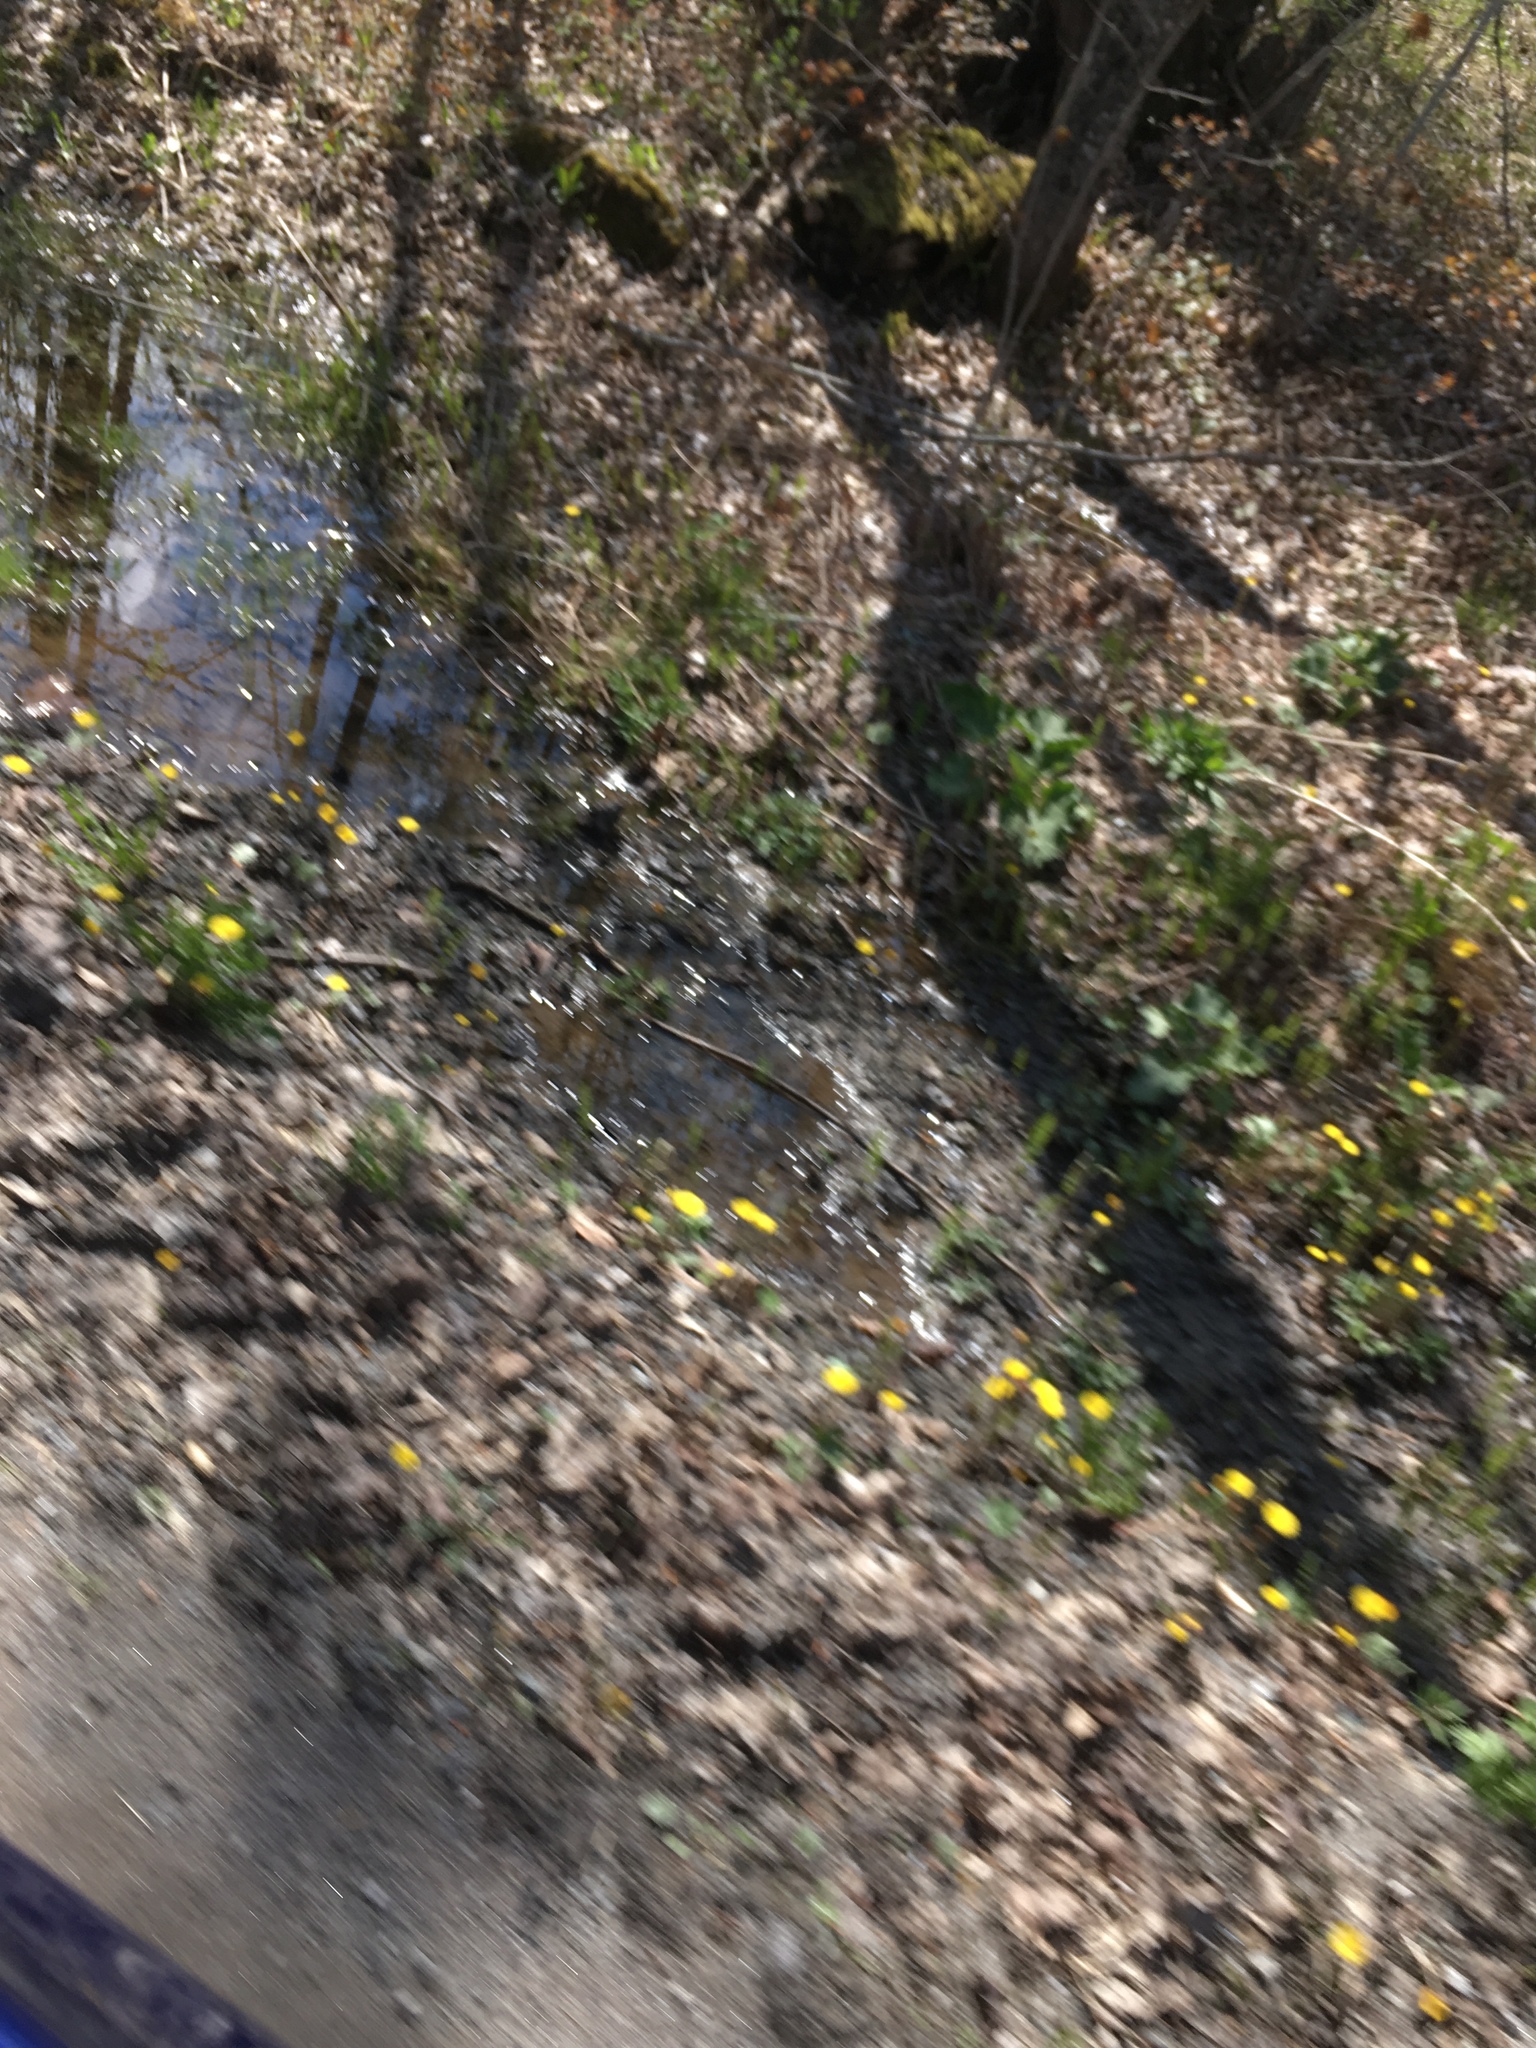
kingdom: Plantae
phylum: Tracheophyta
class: Magnoliopsida
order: Asterales
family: Asteraceae
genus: Tussilago
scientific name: Tussilago farfara
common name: Coltsfoot
